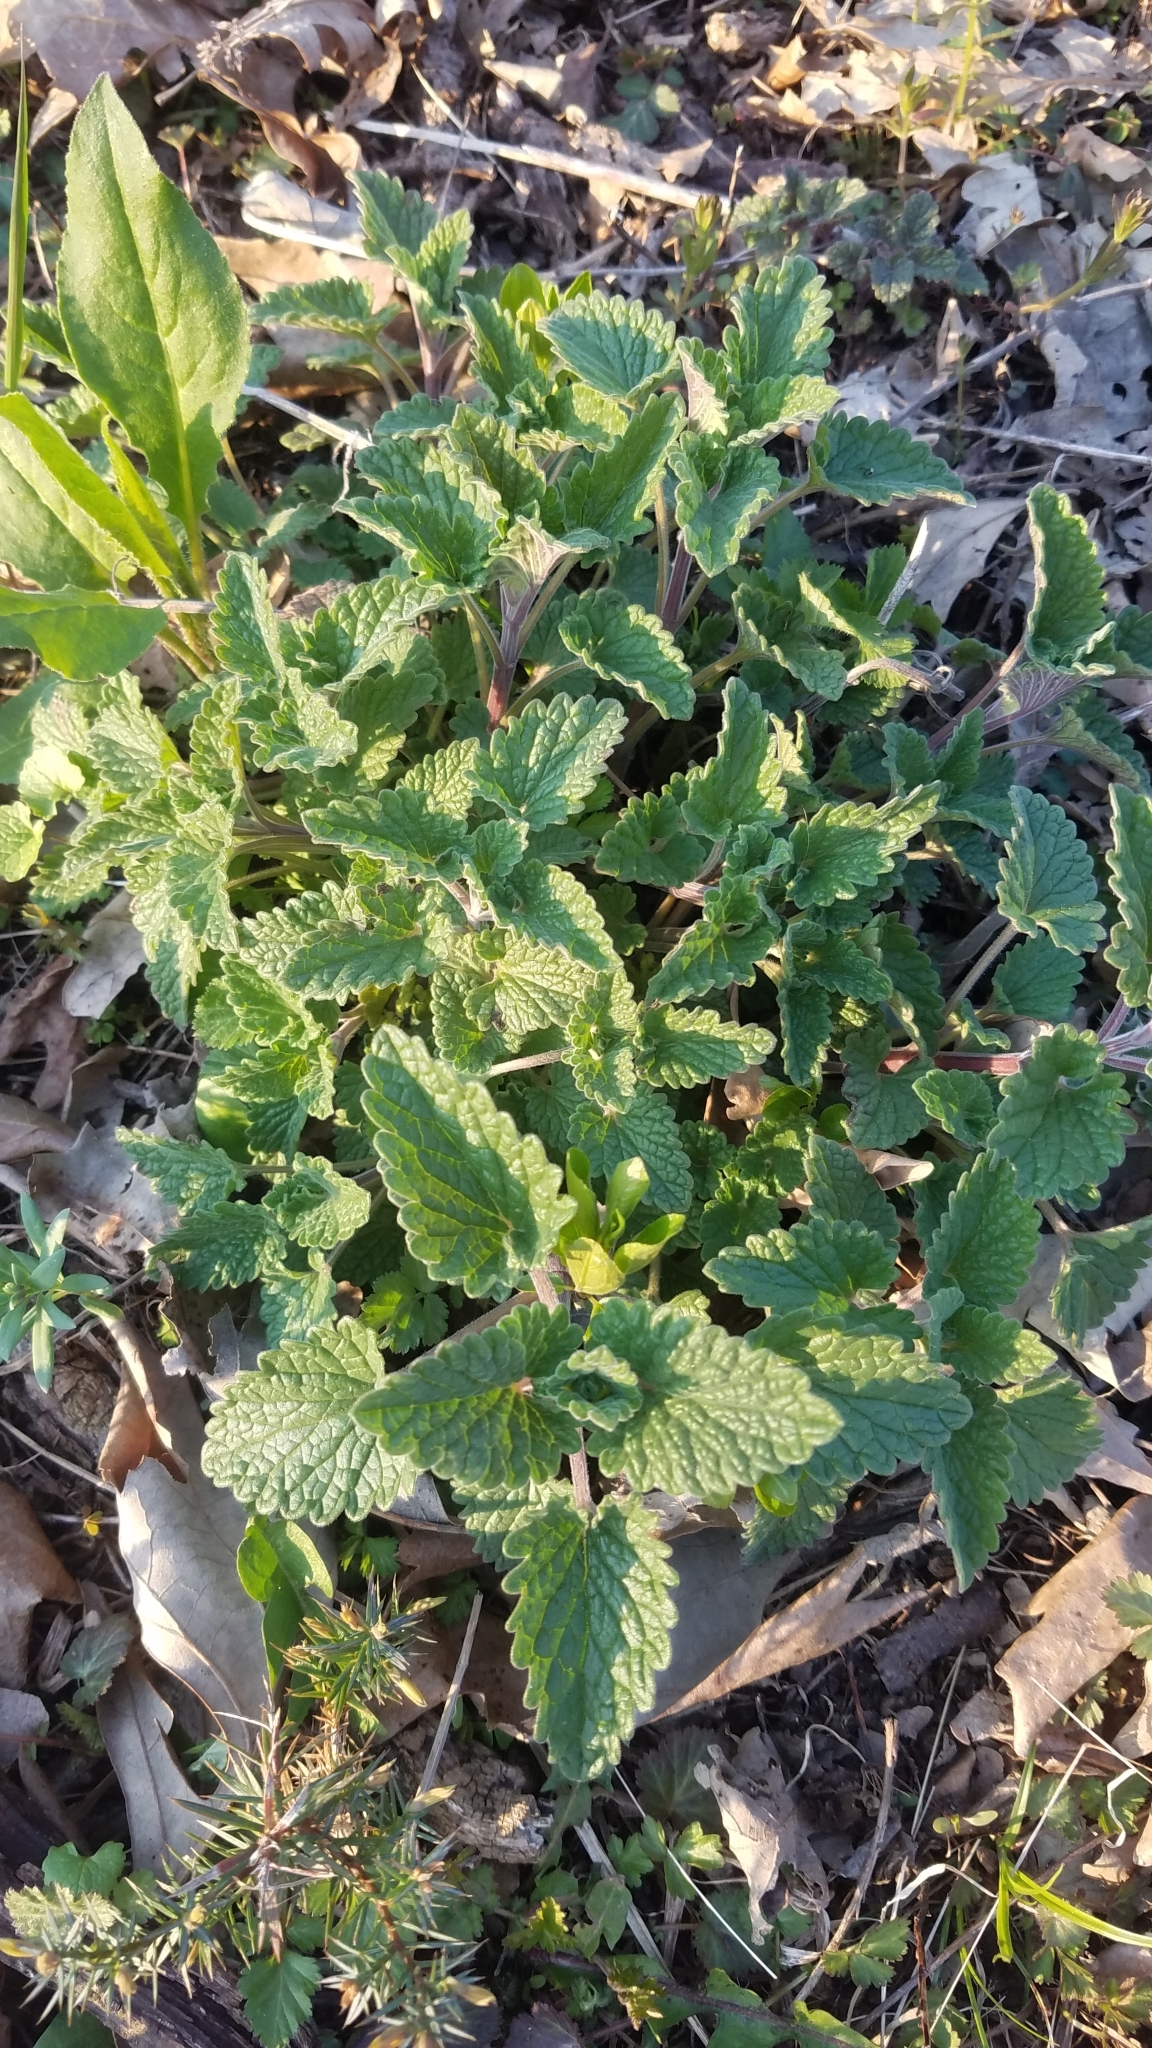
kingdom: Plantae
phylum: Tracheophyta
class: Magnoliopsida
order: Lamiales
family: Lamiaceae
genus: Nepeta
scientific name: Nepeta cataria
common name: Catnip
